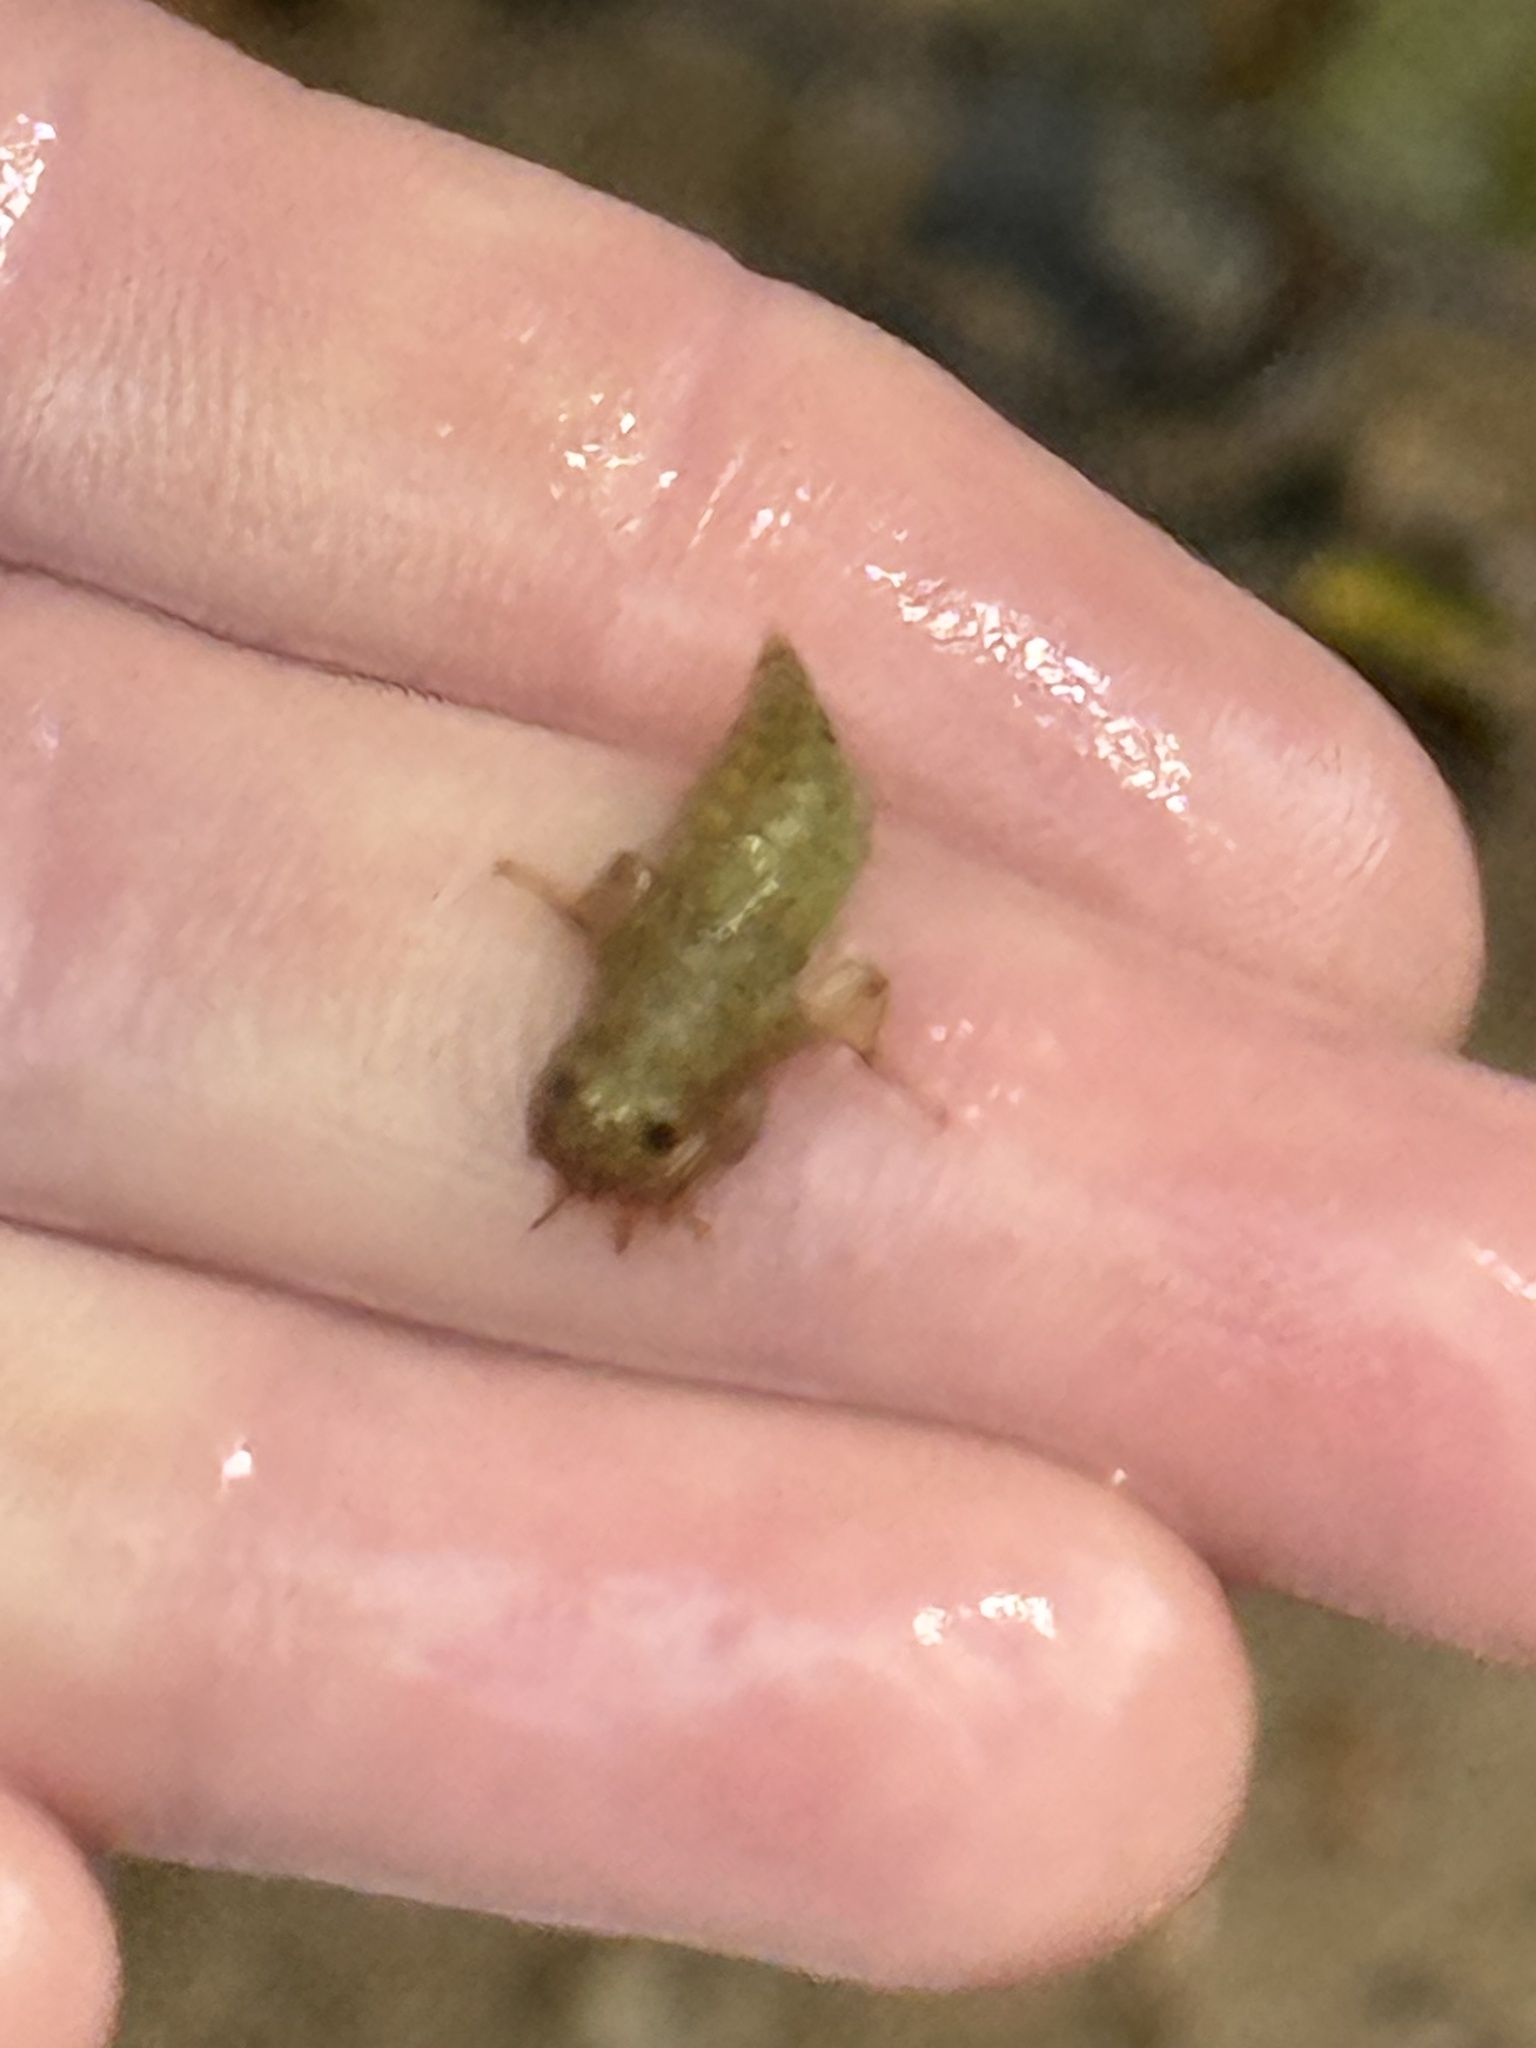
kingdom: Animalia
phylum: Arthropoda
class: Insecta
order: Odonata
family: Gomphidae
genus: Progomphus
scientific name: Progomphus obscurus
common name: Common sanddragon
